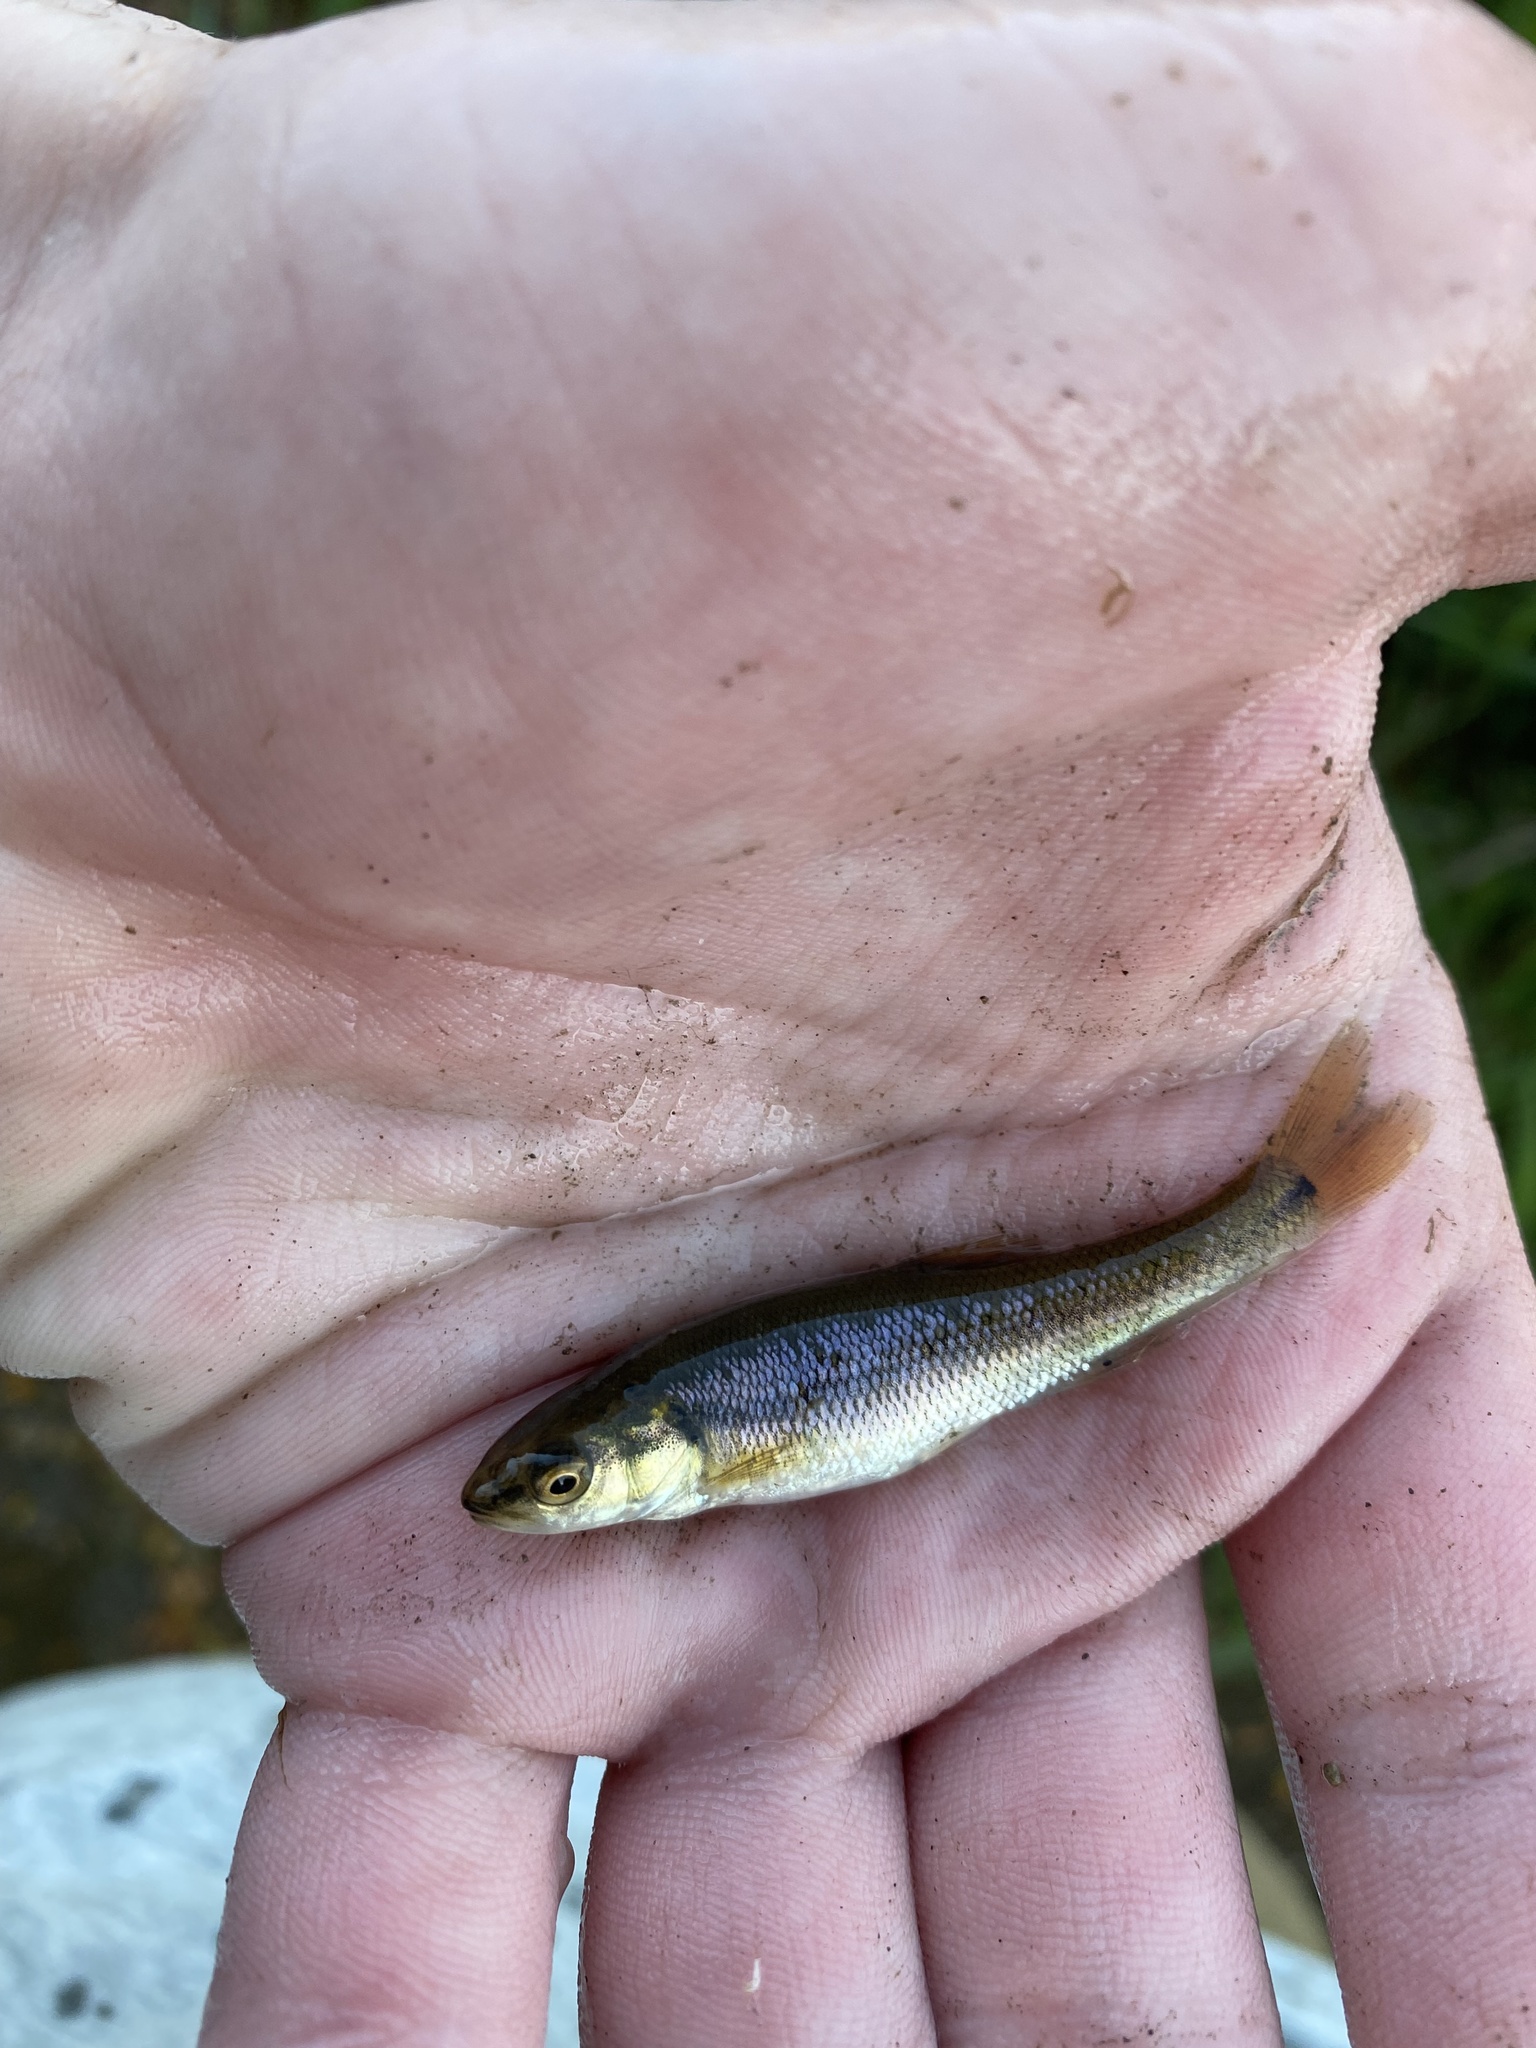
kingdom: Animalia
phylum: Chordata
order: Cypriniformes
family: Cyprinidae
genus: Semotilus
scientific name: Semotilus atromaculatus
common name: Creek chub
